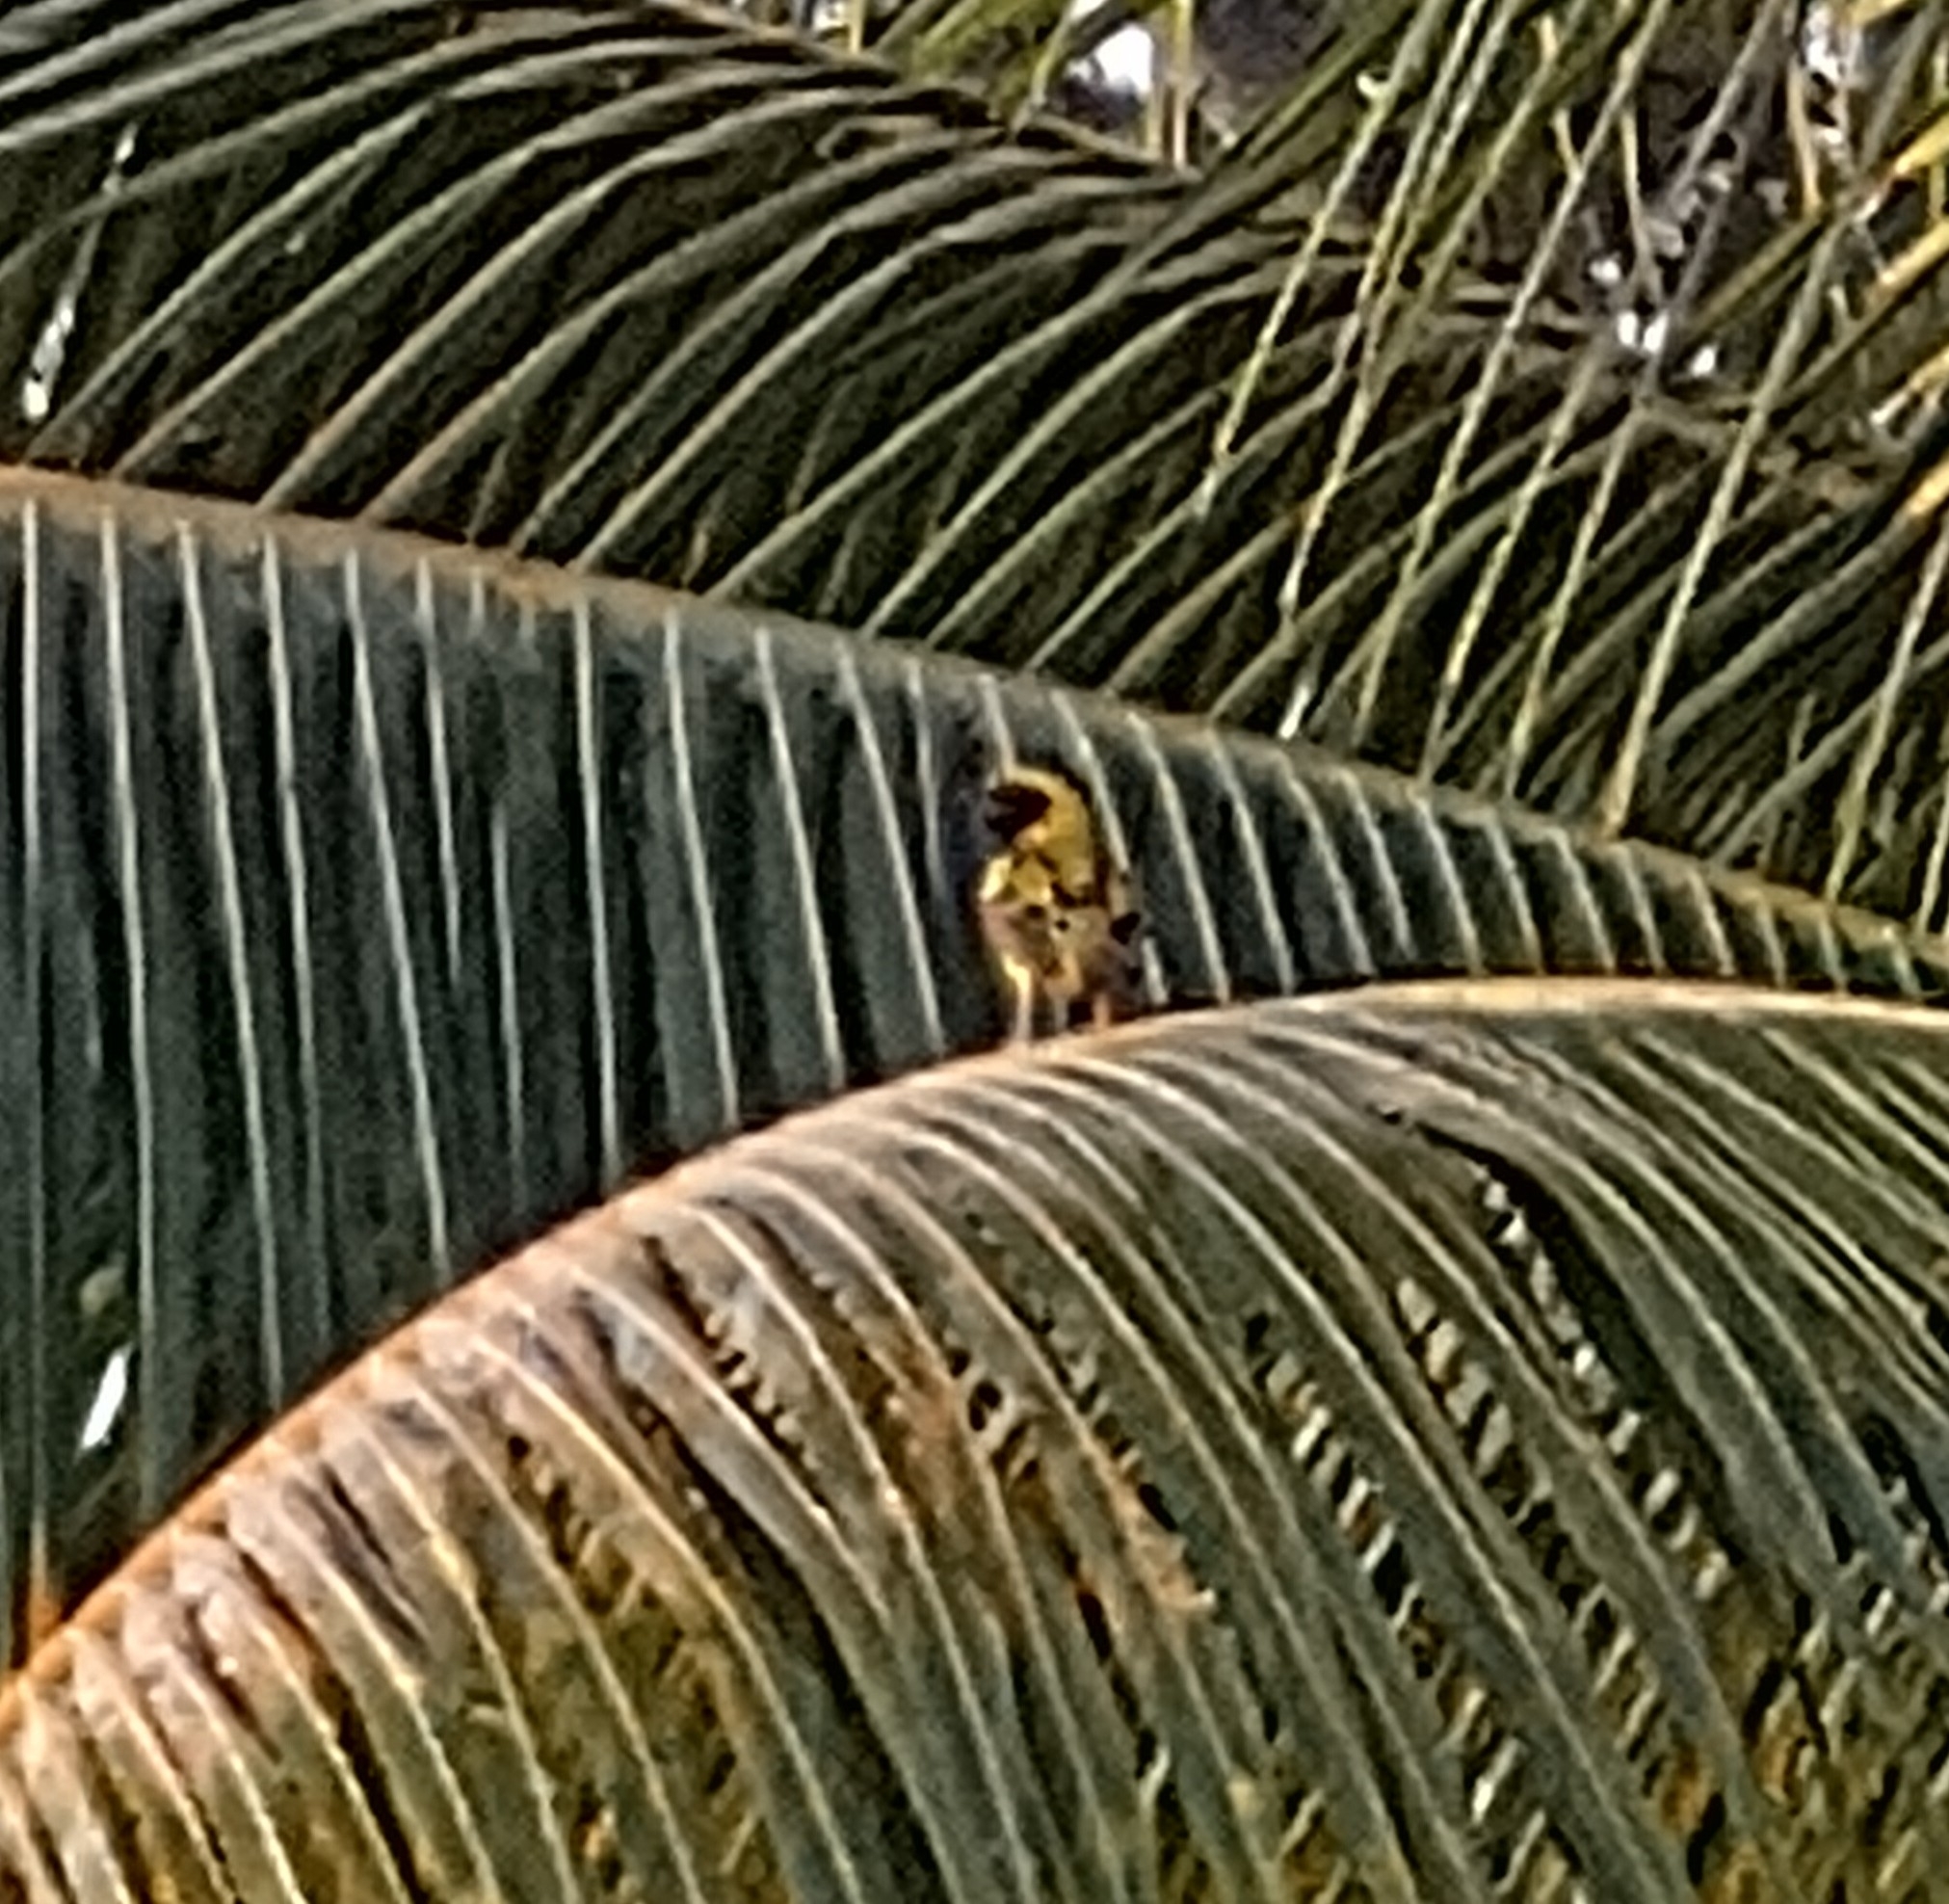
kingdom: Animalia
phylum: Chordata
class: Aves
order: Passeriformes
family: Ploceidae
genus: Ploceus
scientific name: Ploceus cucullatus
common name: Village weaver
